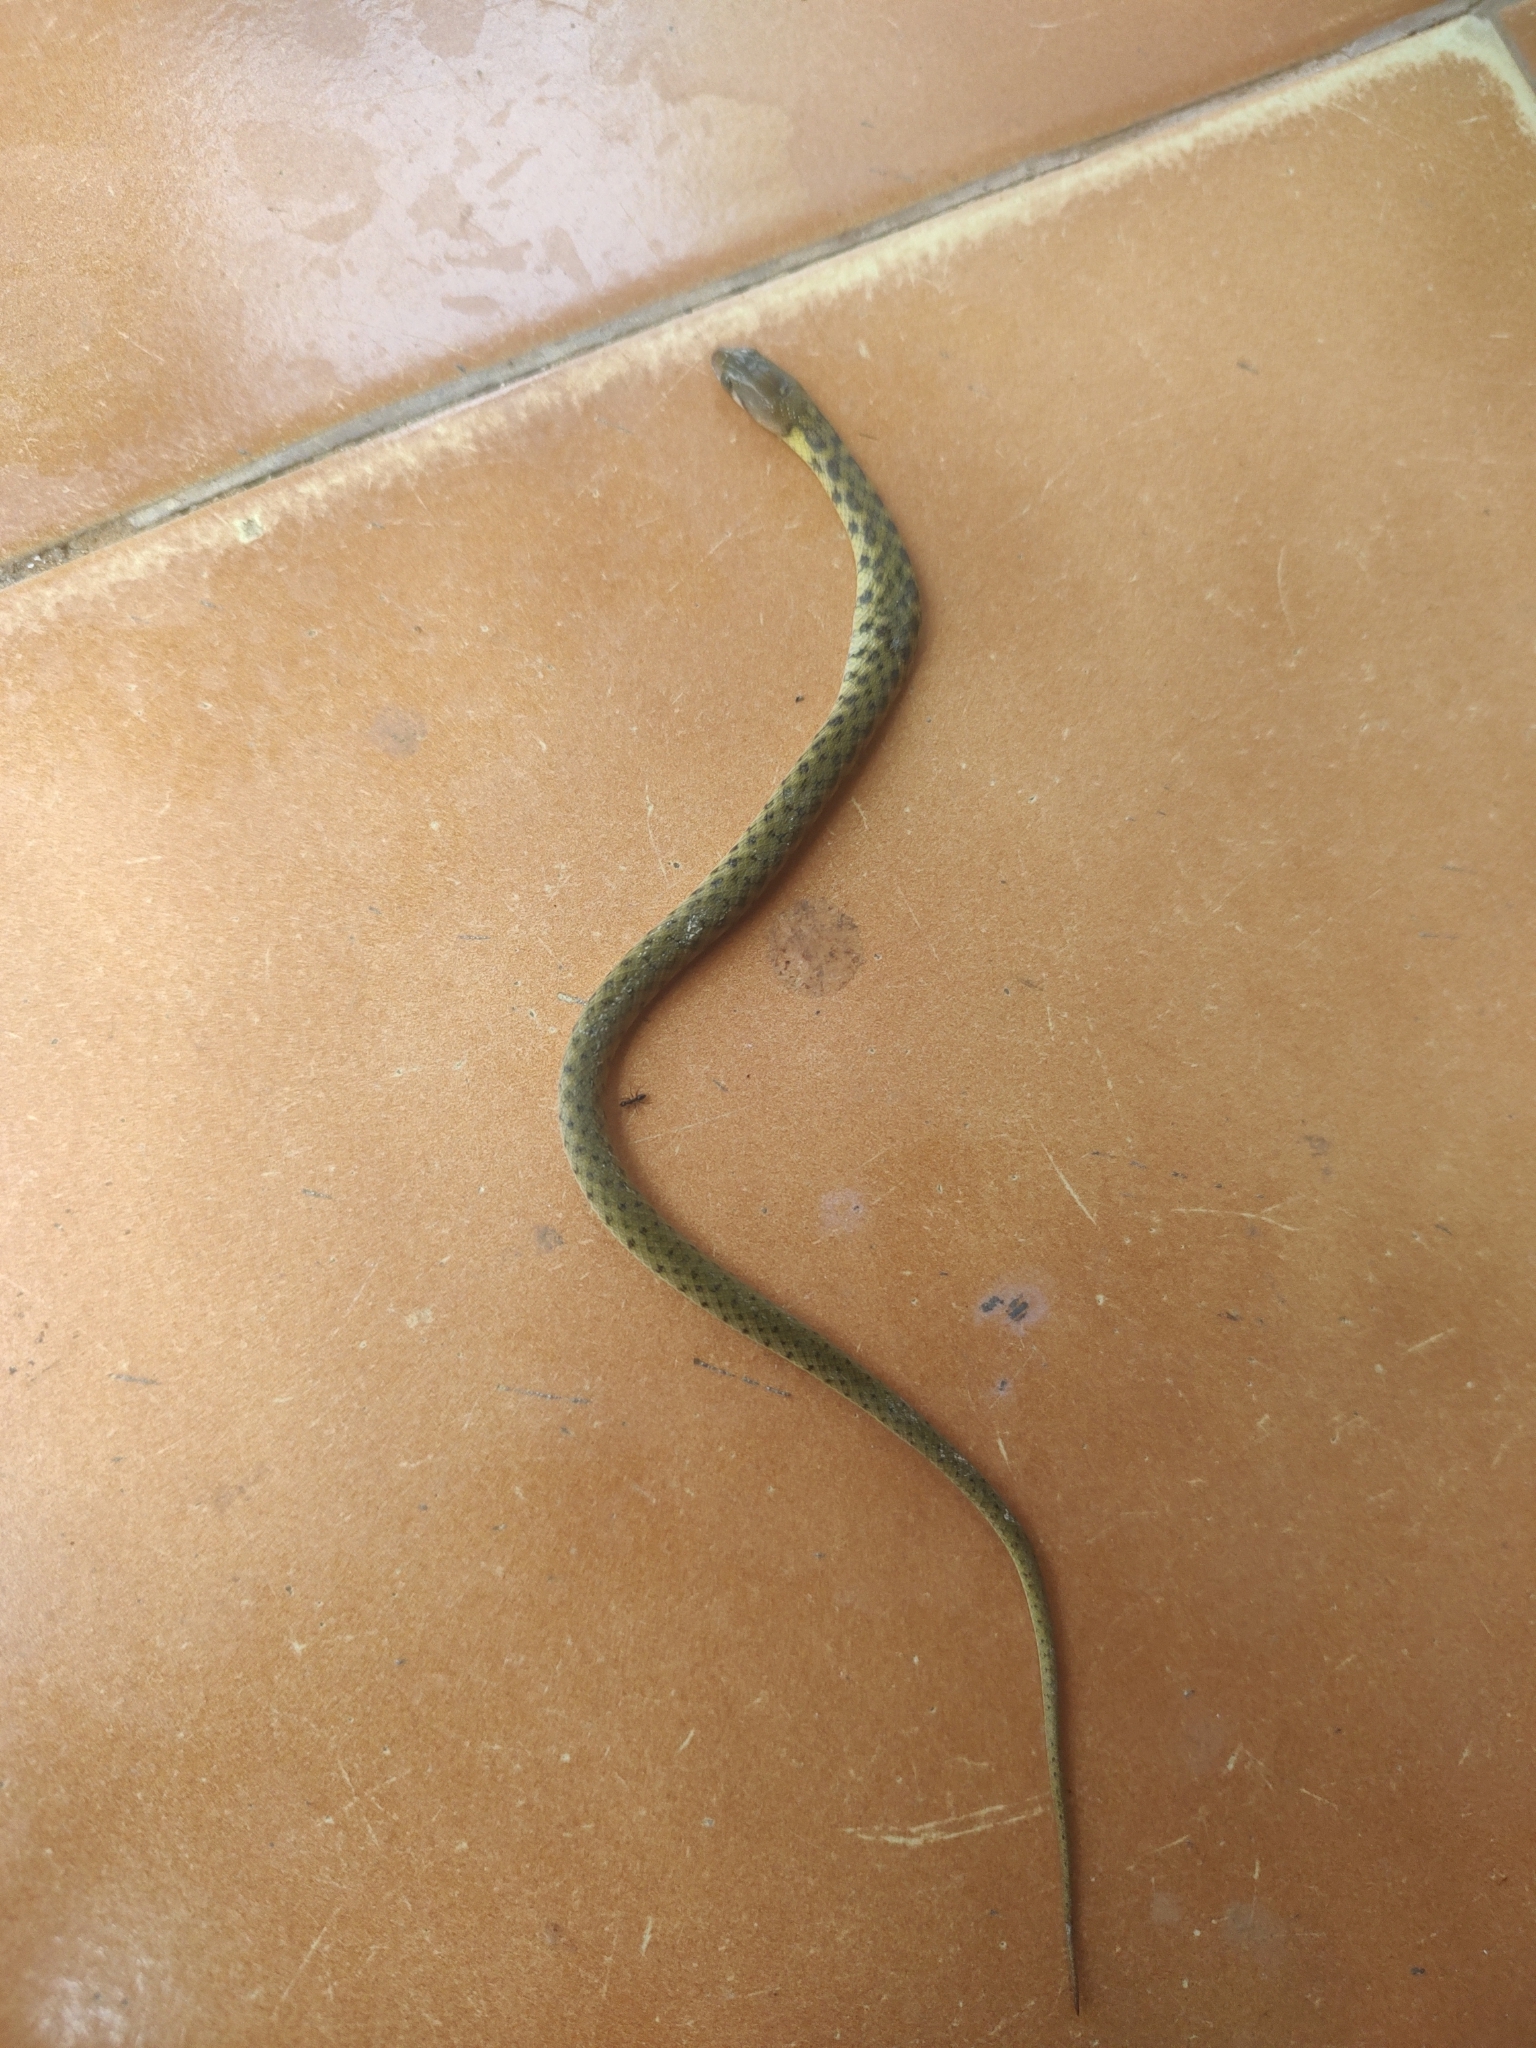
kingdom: Animalia
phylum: Chordata
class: Squamata
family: Colubridae
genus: Fowlea
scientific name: Fowlea piscator
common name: Asiatic water snake
